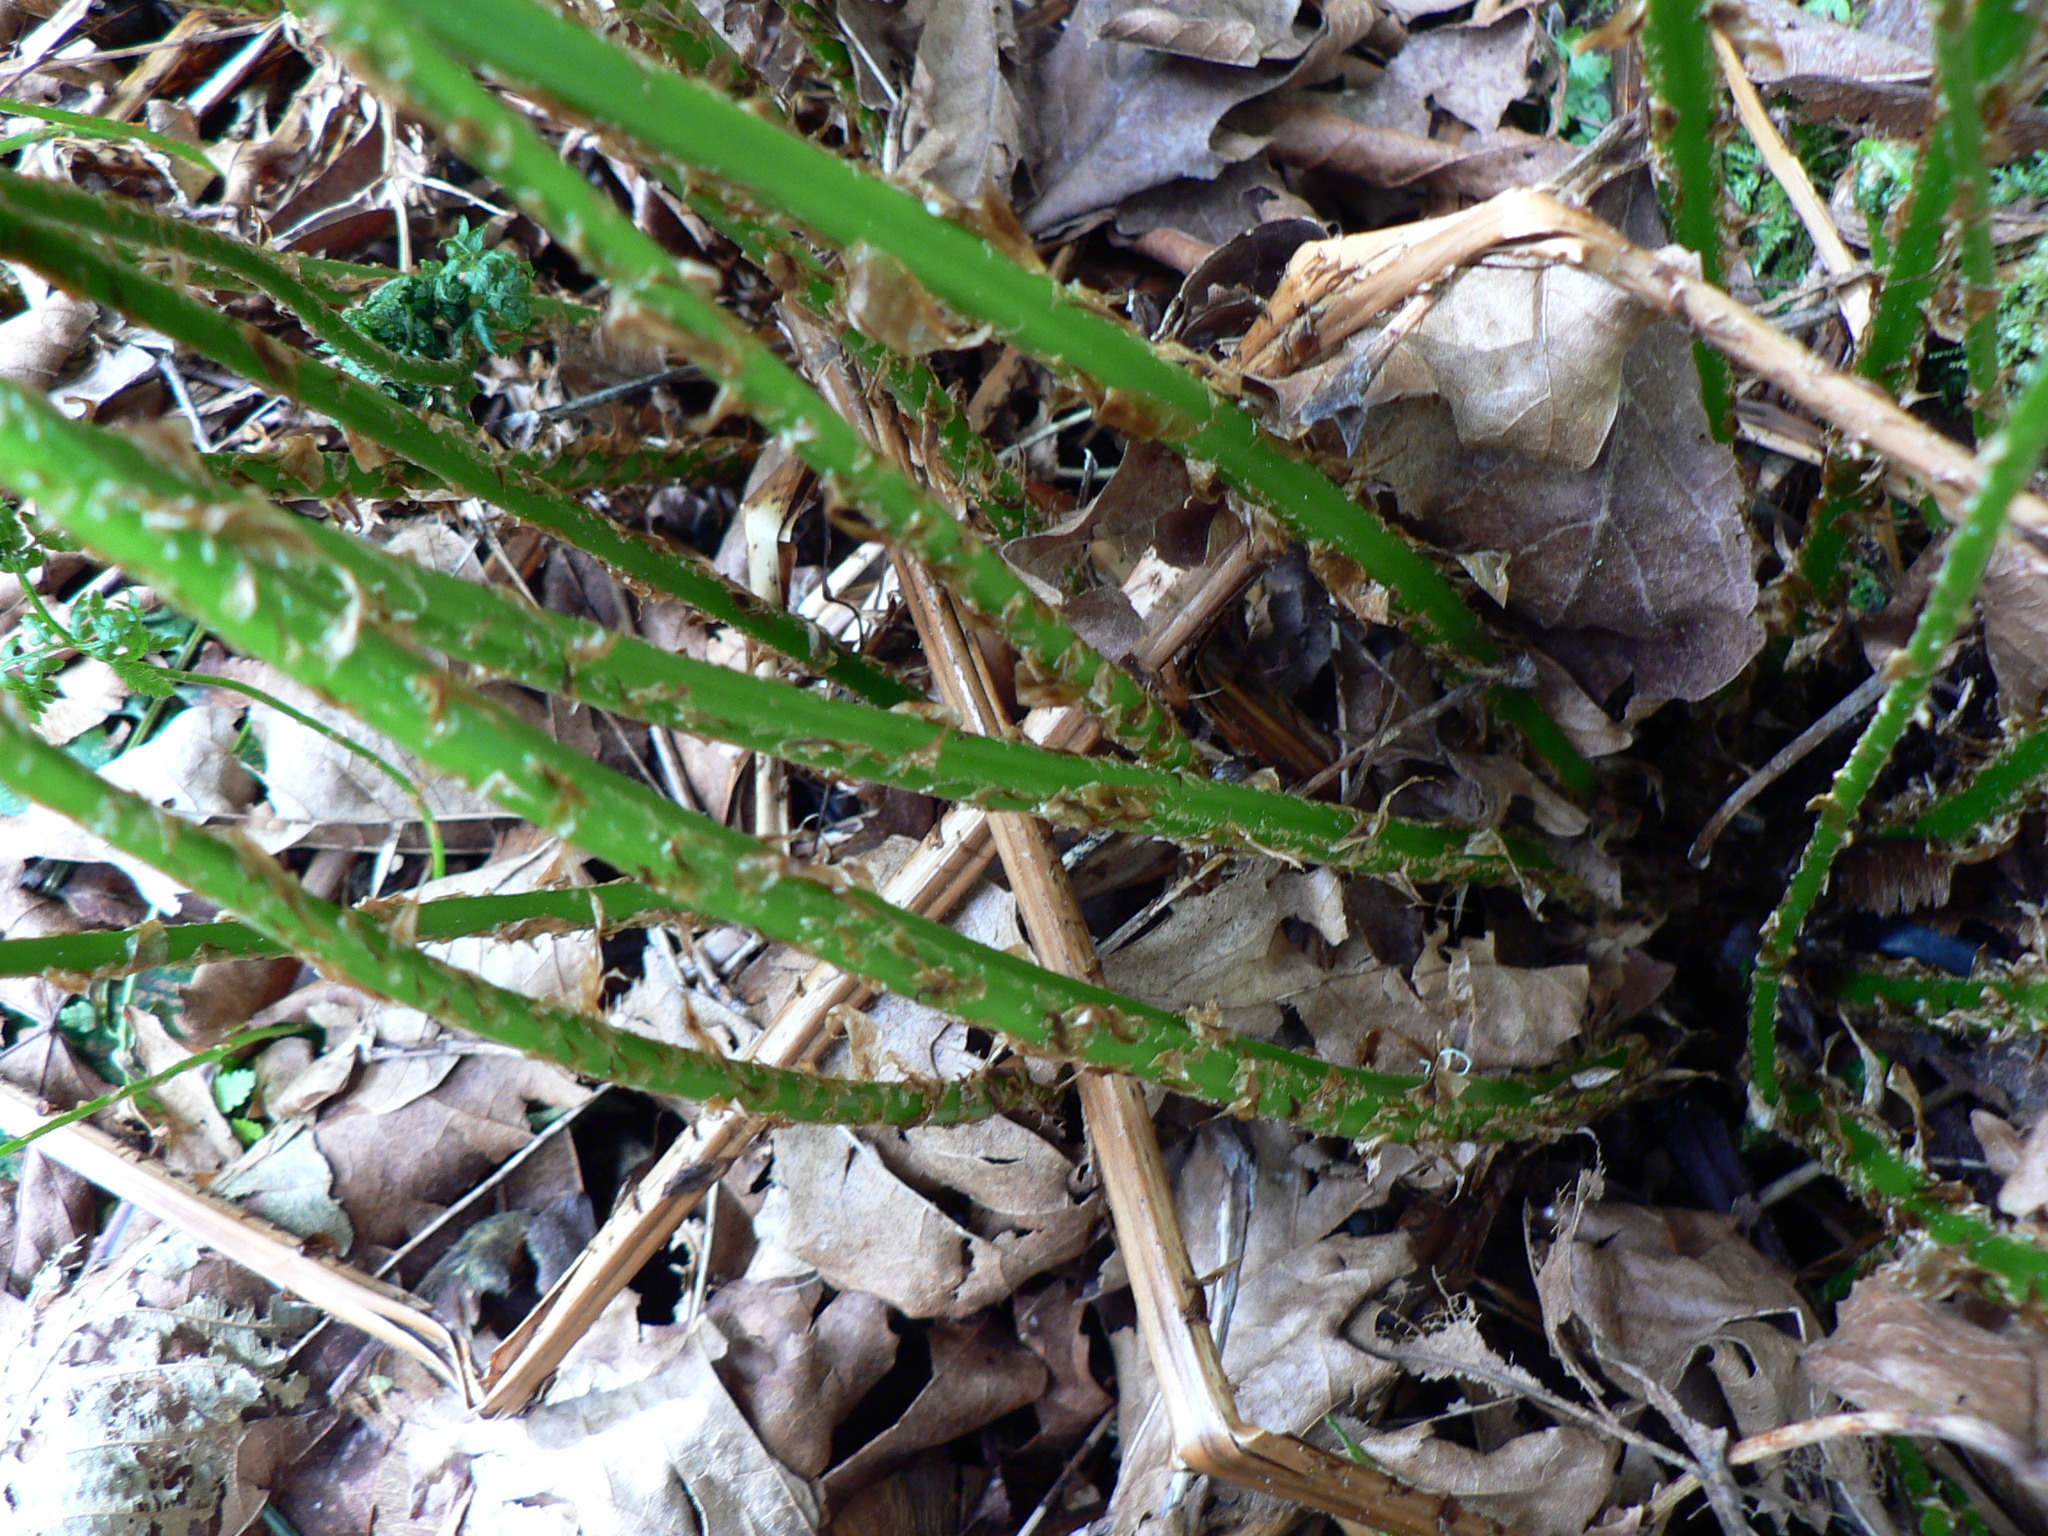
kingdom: Plantae
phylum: Tracheophyta
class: Polypodiopsida
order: Polypodiales
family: Dryopteridaceae
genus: Dryopteris
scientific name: Dryopteris expansa
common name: Northern buckler fern
